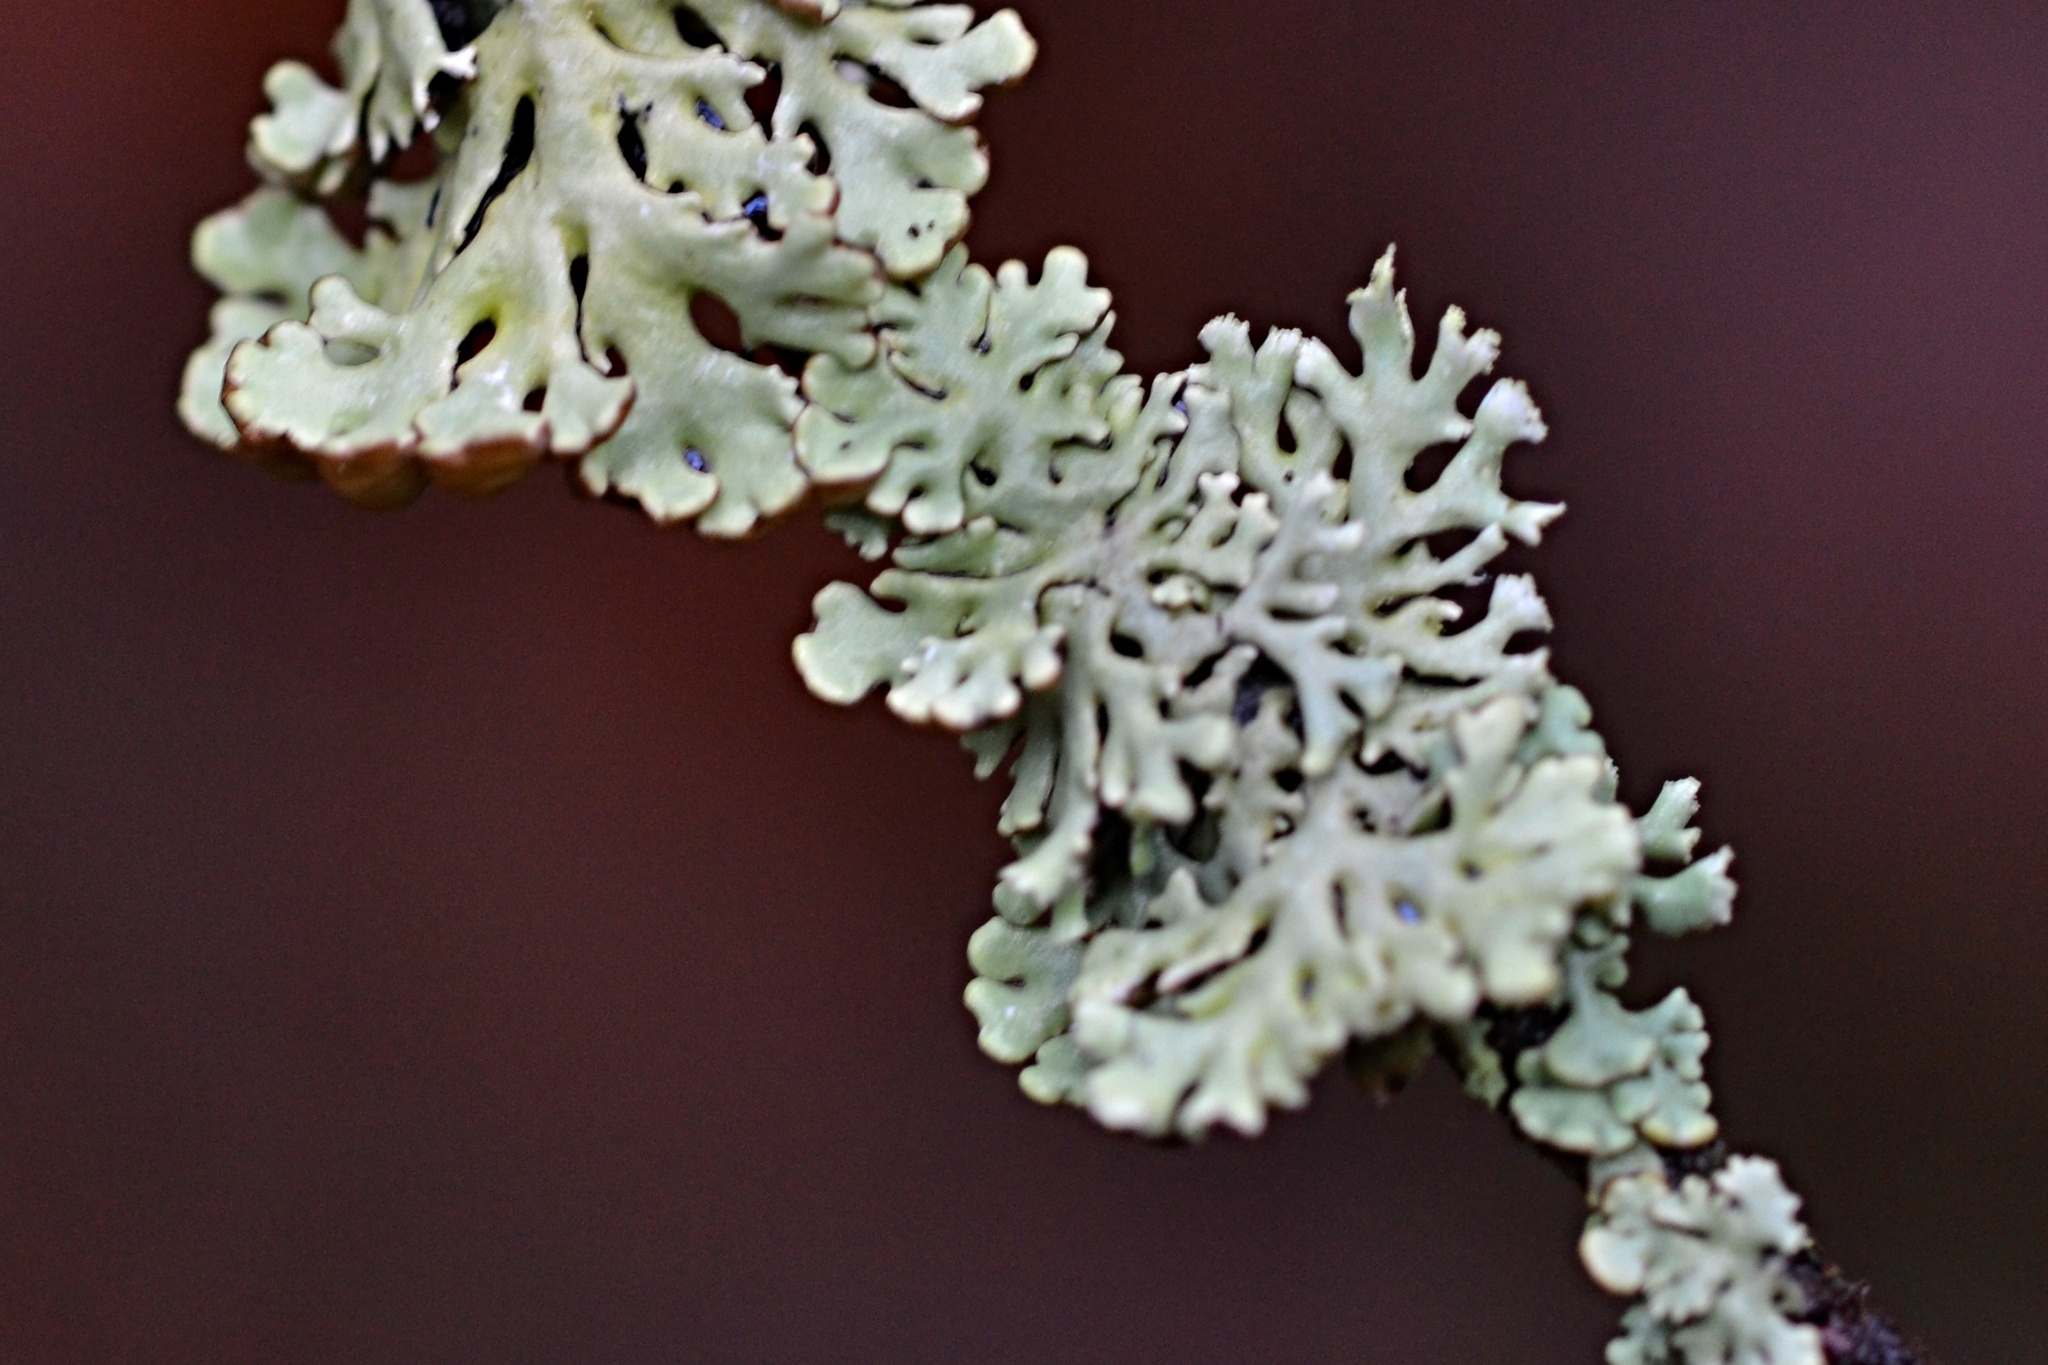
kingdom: Fungi
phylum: Ascomycota
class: Lecanoromycetes
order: Lecanorales
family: Parmeliaceae
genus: Hypogymnia
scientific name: Hypogymnia physodes
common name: Dark crottle
